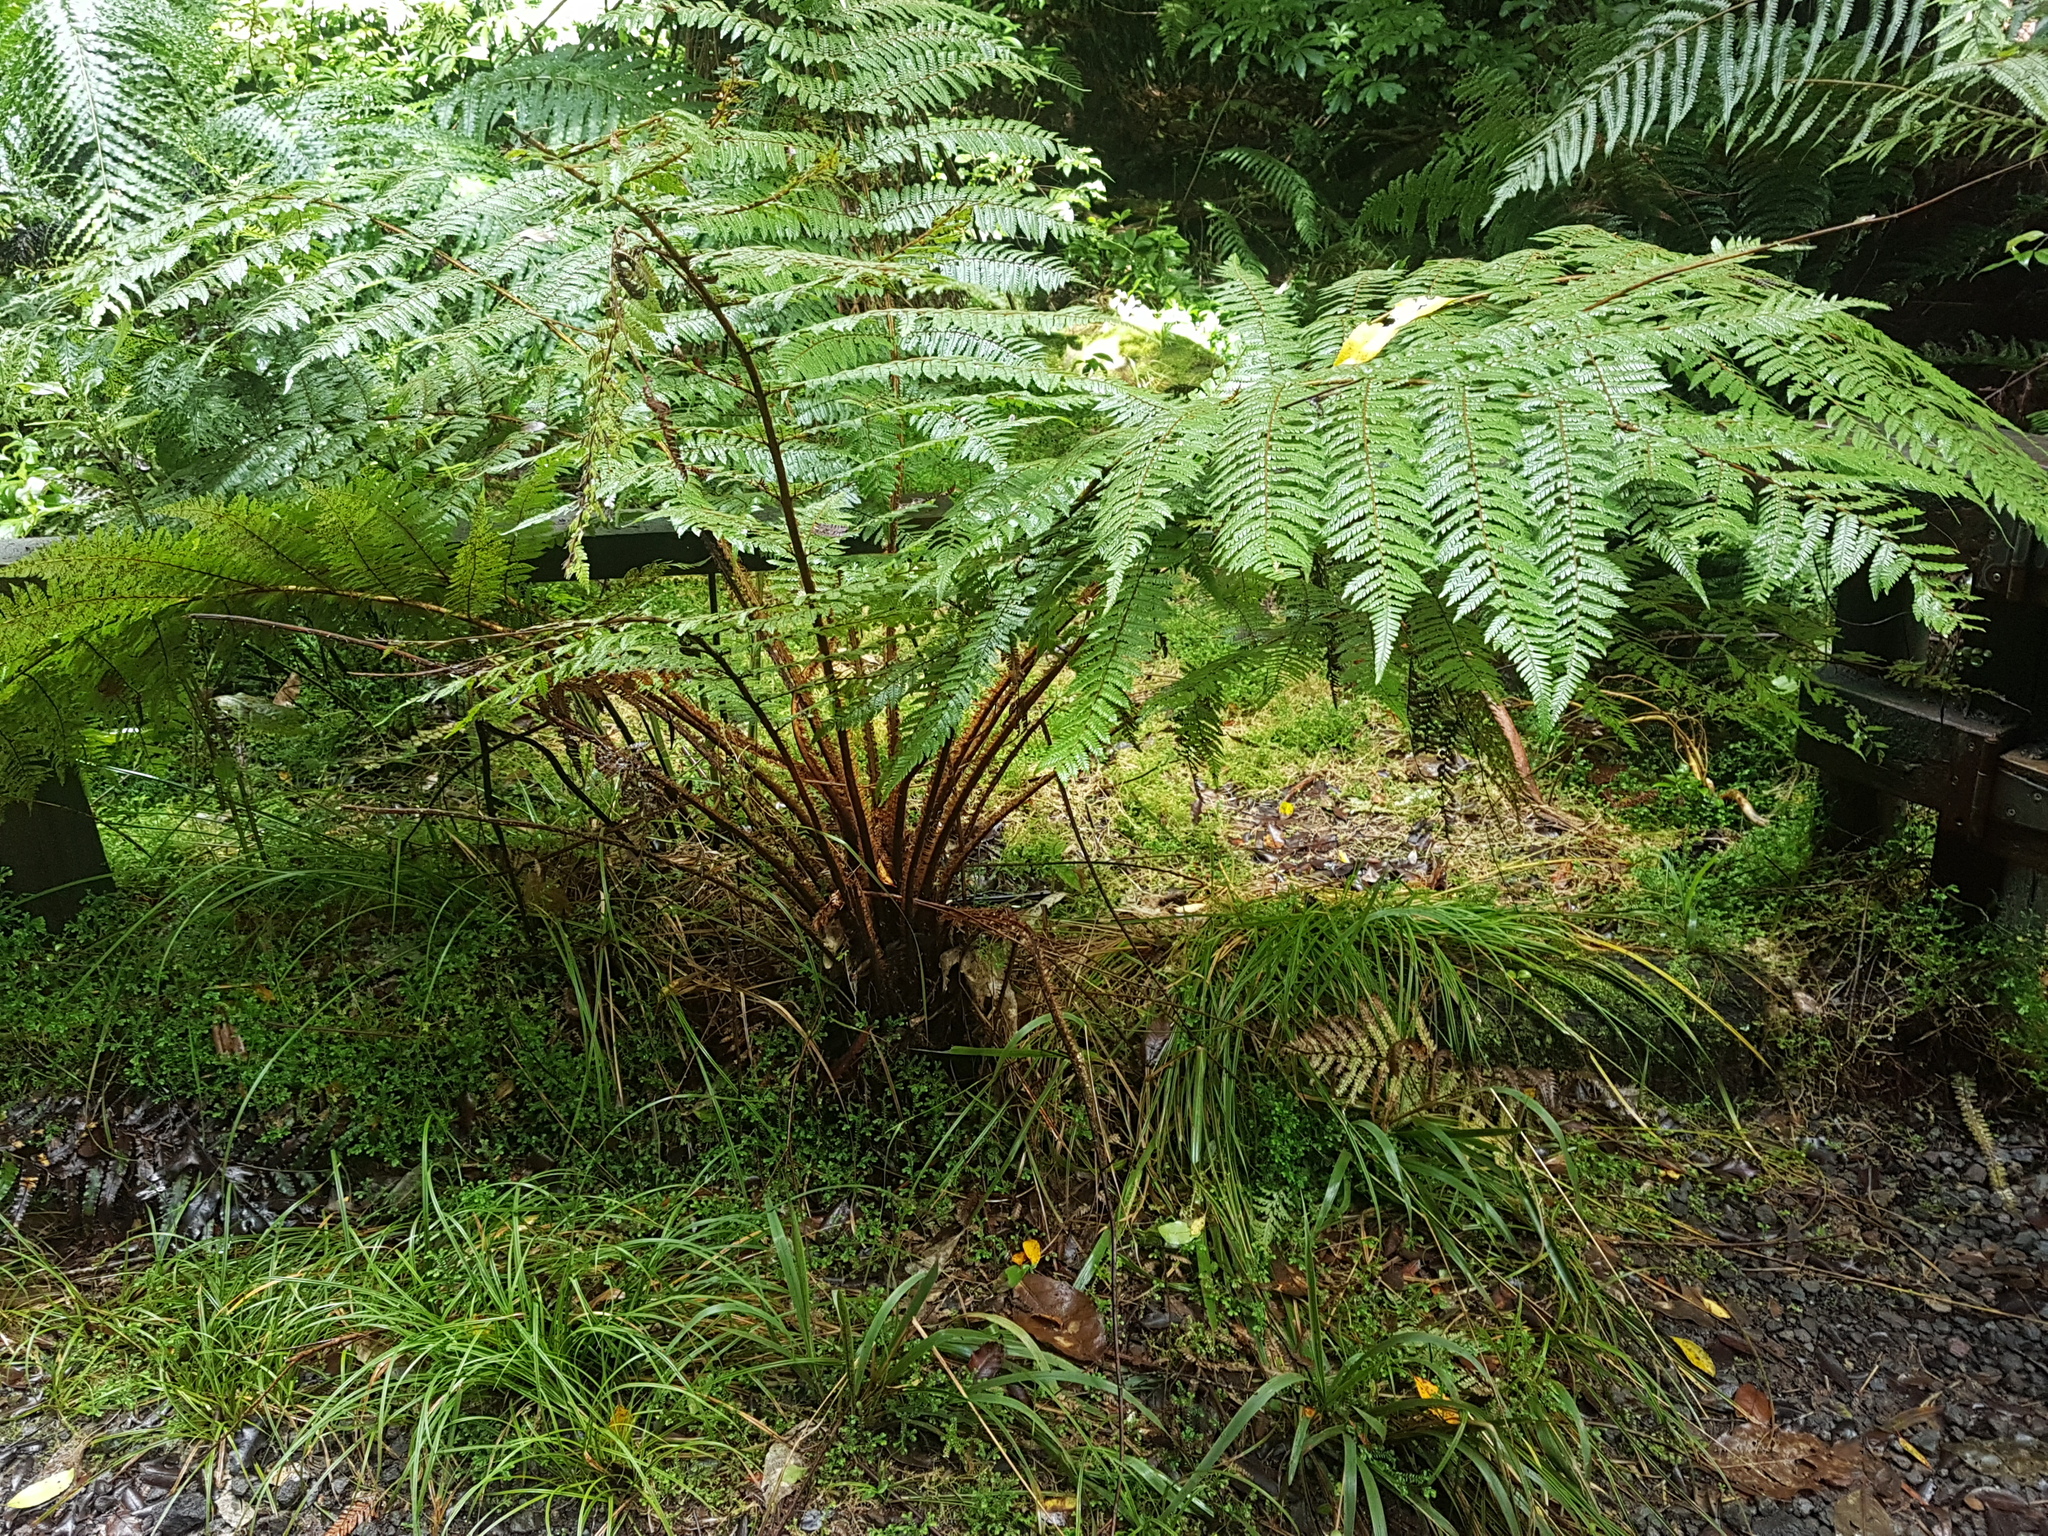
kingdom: Plantae
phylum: Tracheophyta
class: Polypodiopsida
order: Cyatheales
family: Cyatheaceae
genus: Alsophila
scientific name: Alsophila smithii
